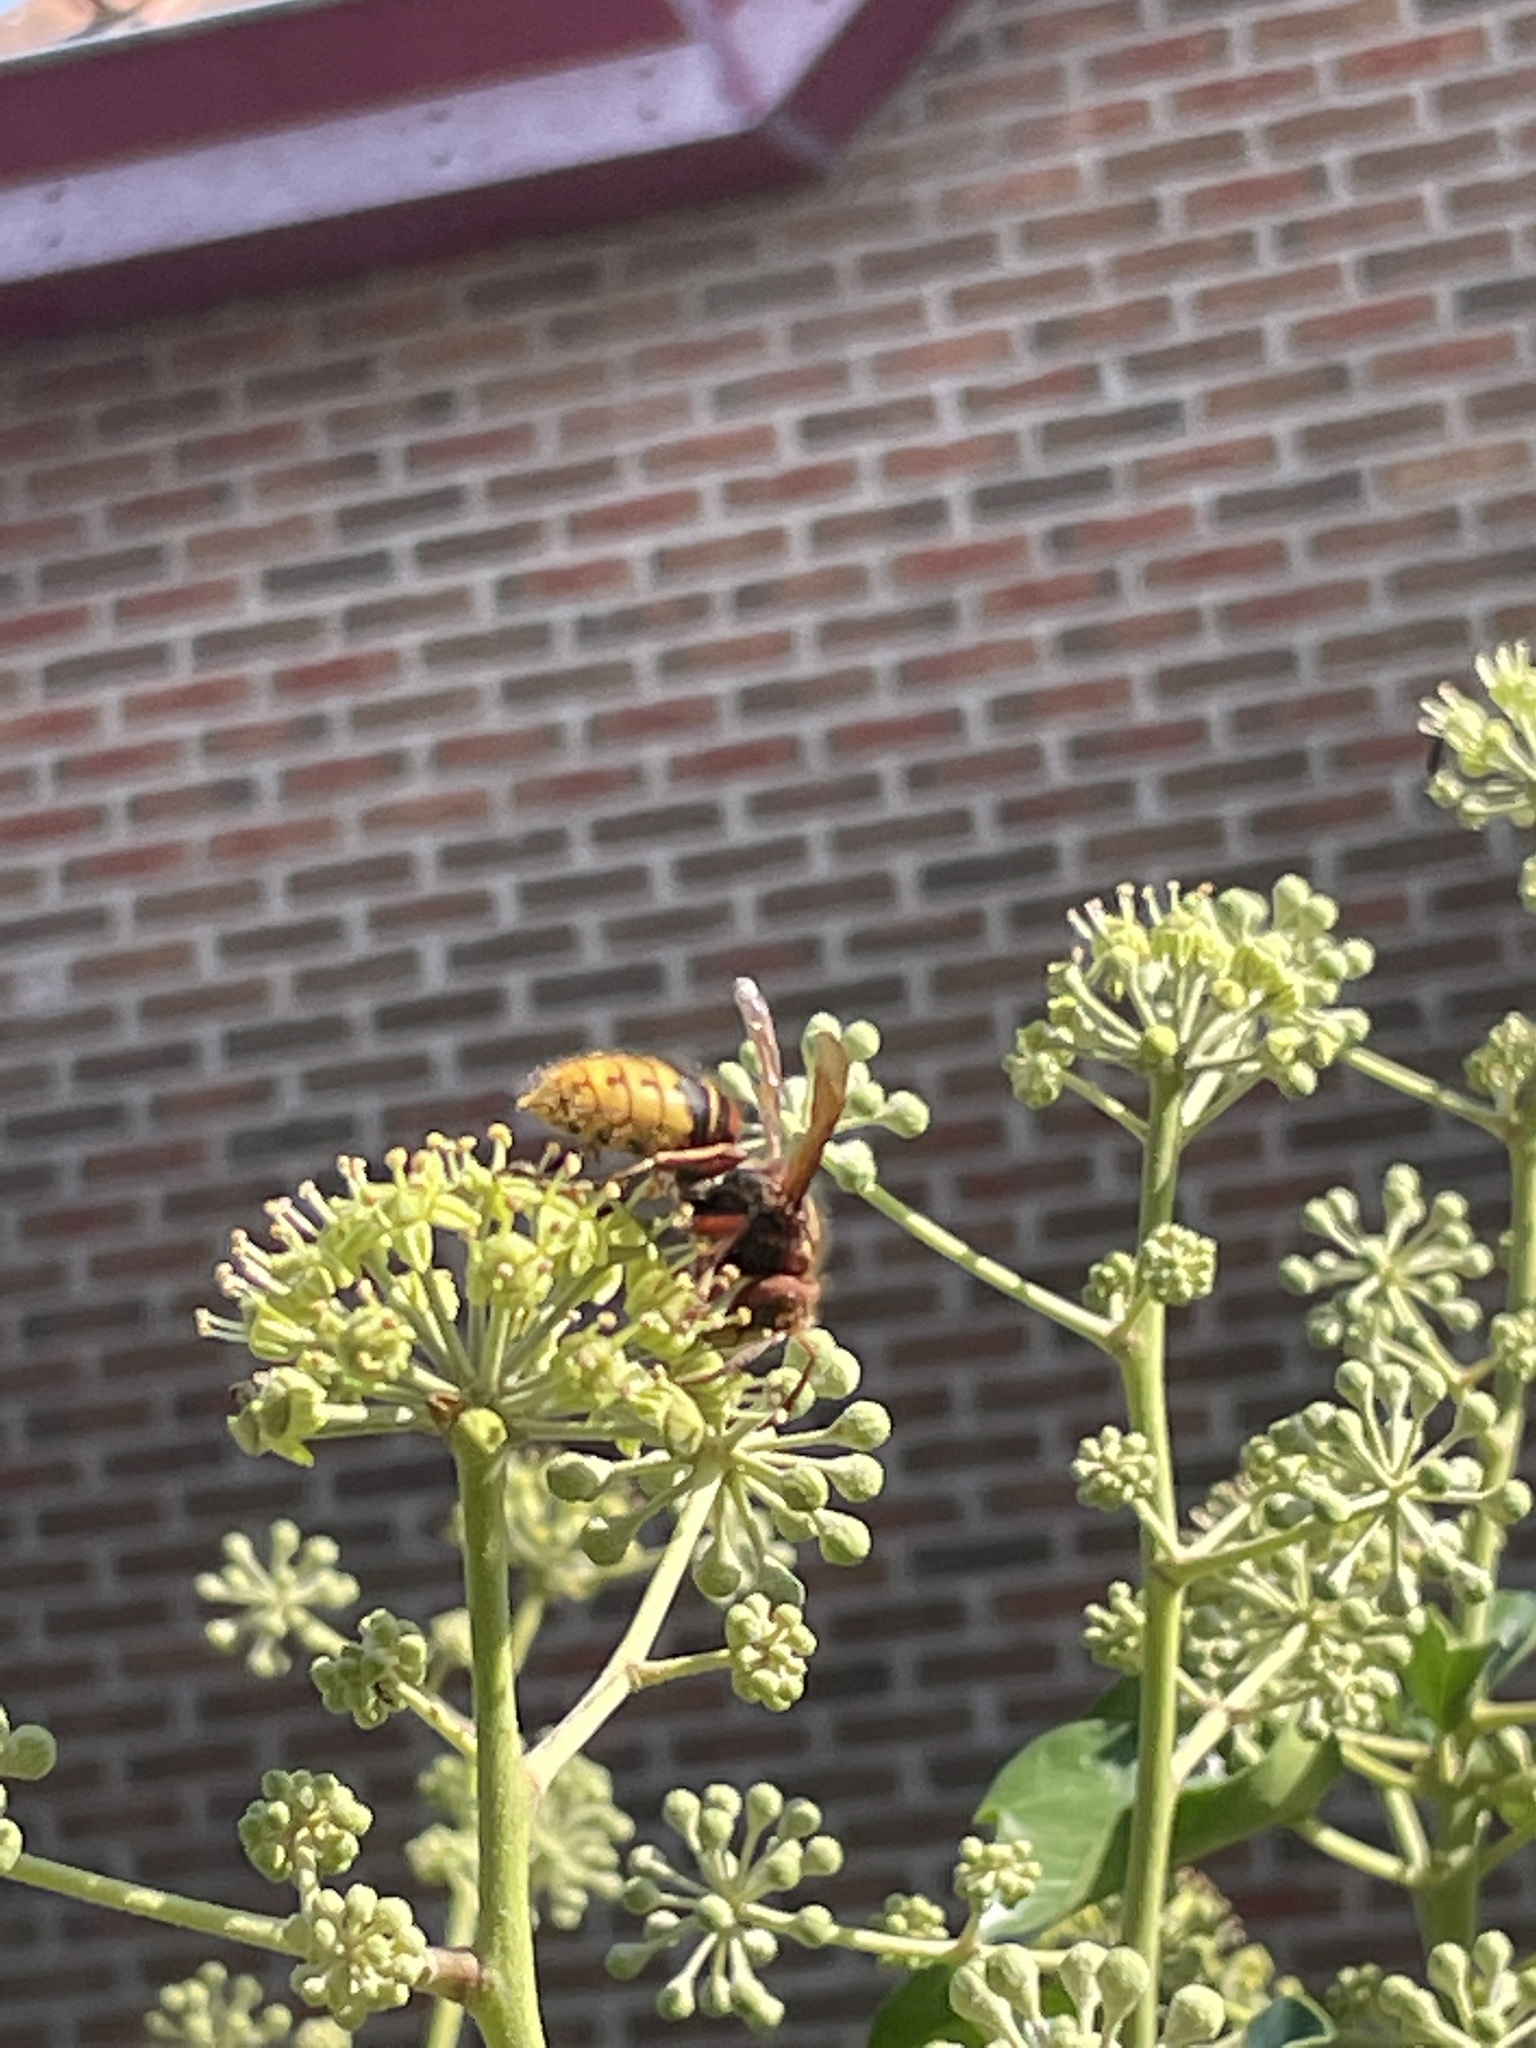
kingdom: Animalia
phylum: Arthropoda
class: Insecta
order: Hymenoptera
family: Vespidae
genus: Vespa
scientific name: Vespa crabro
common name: Hornet
